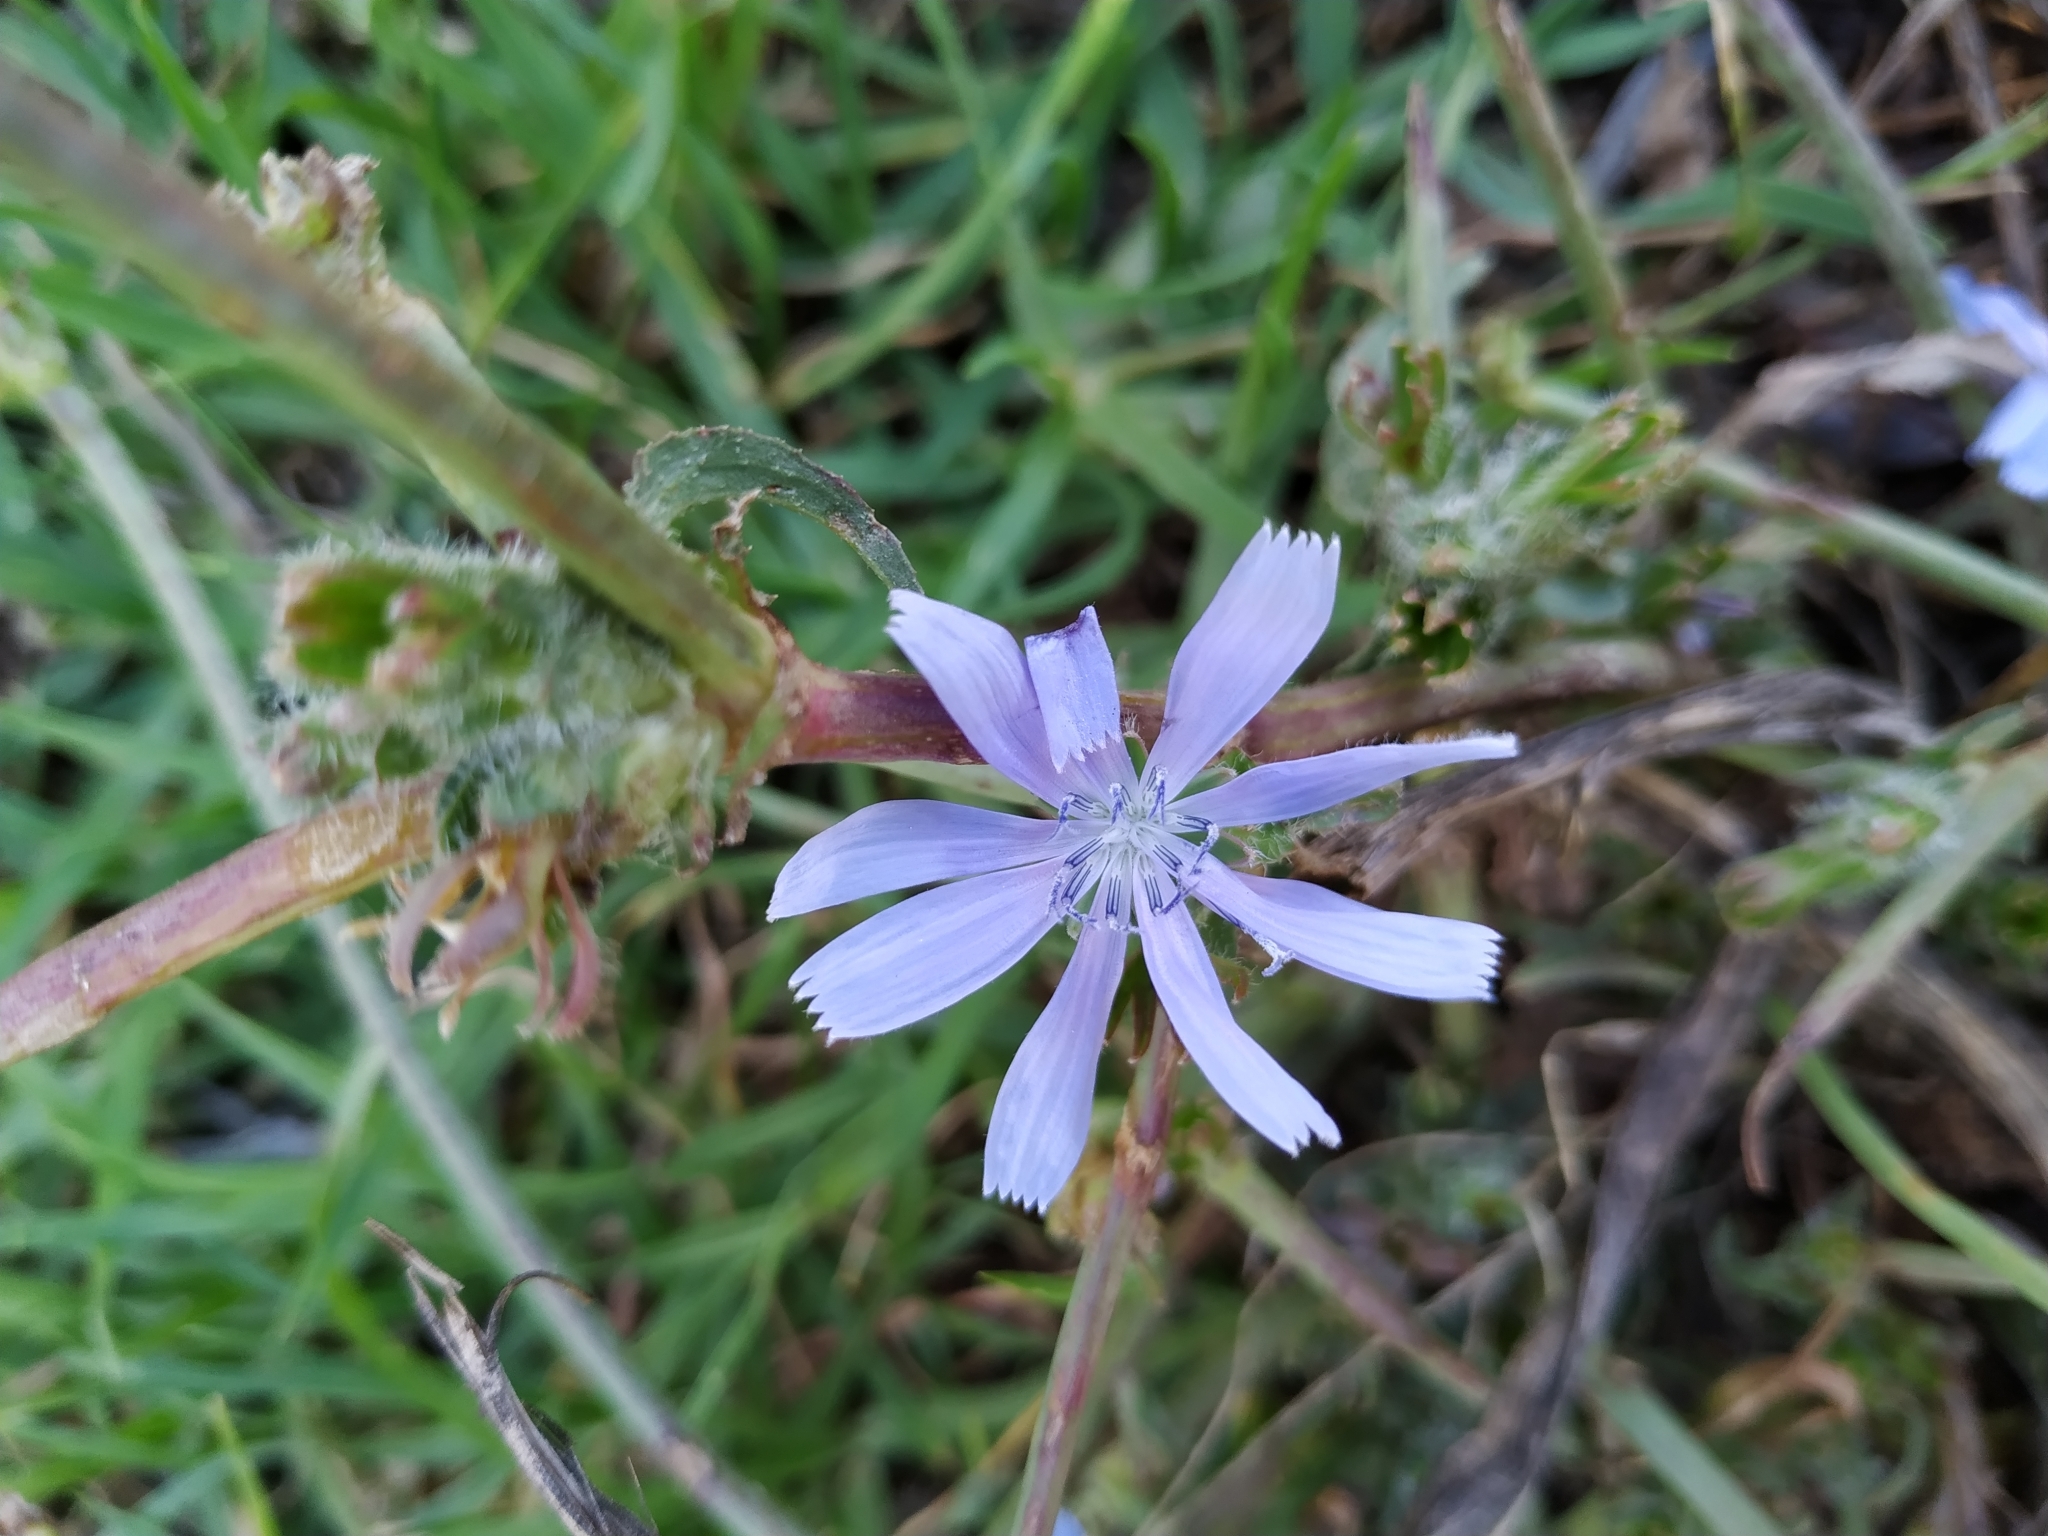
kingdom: Plantae
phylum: Tracheophyta
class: Magnoliopsida
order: Asterales
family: Asteraceae
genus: Cichorium
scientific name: Cichorium intybus
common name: Chicory
